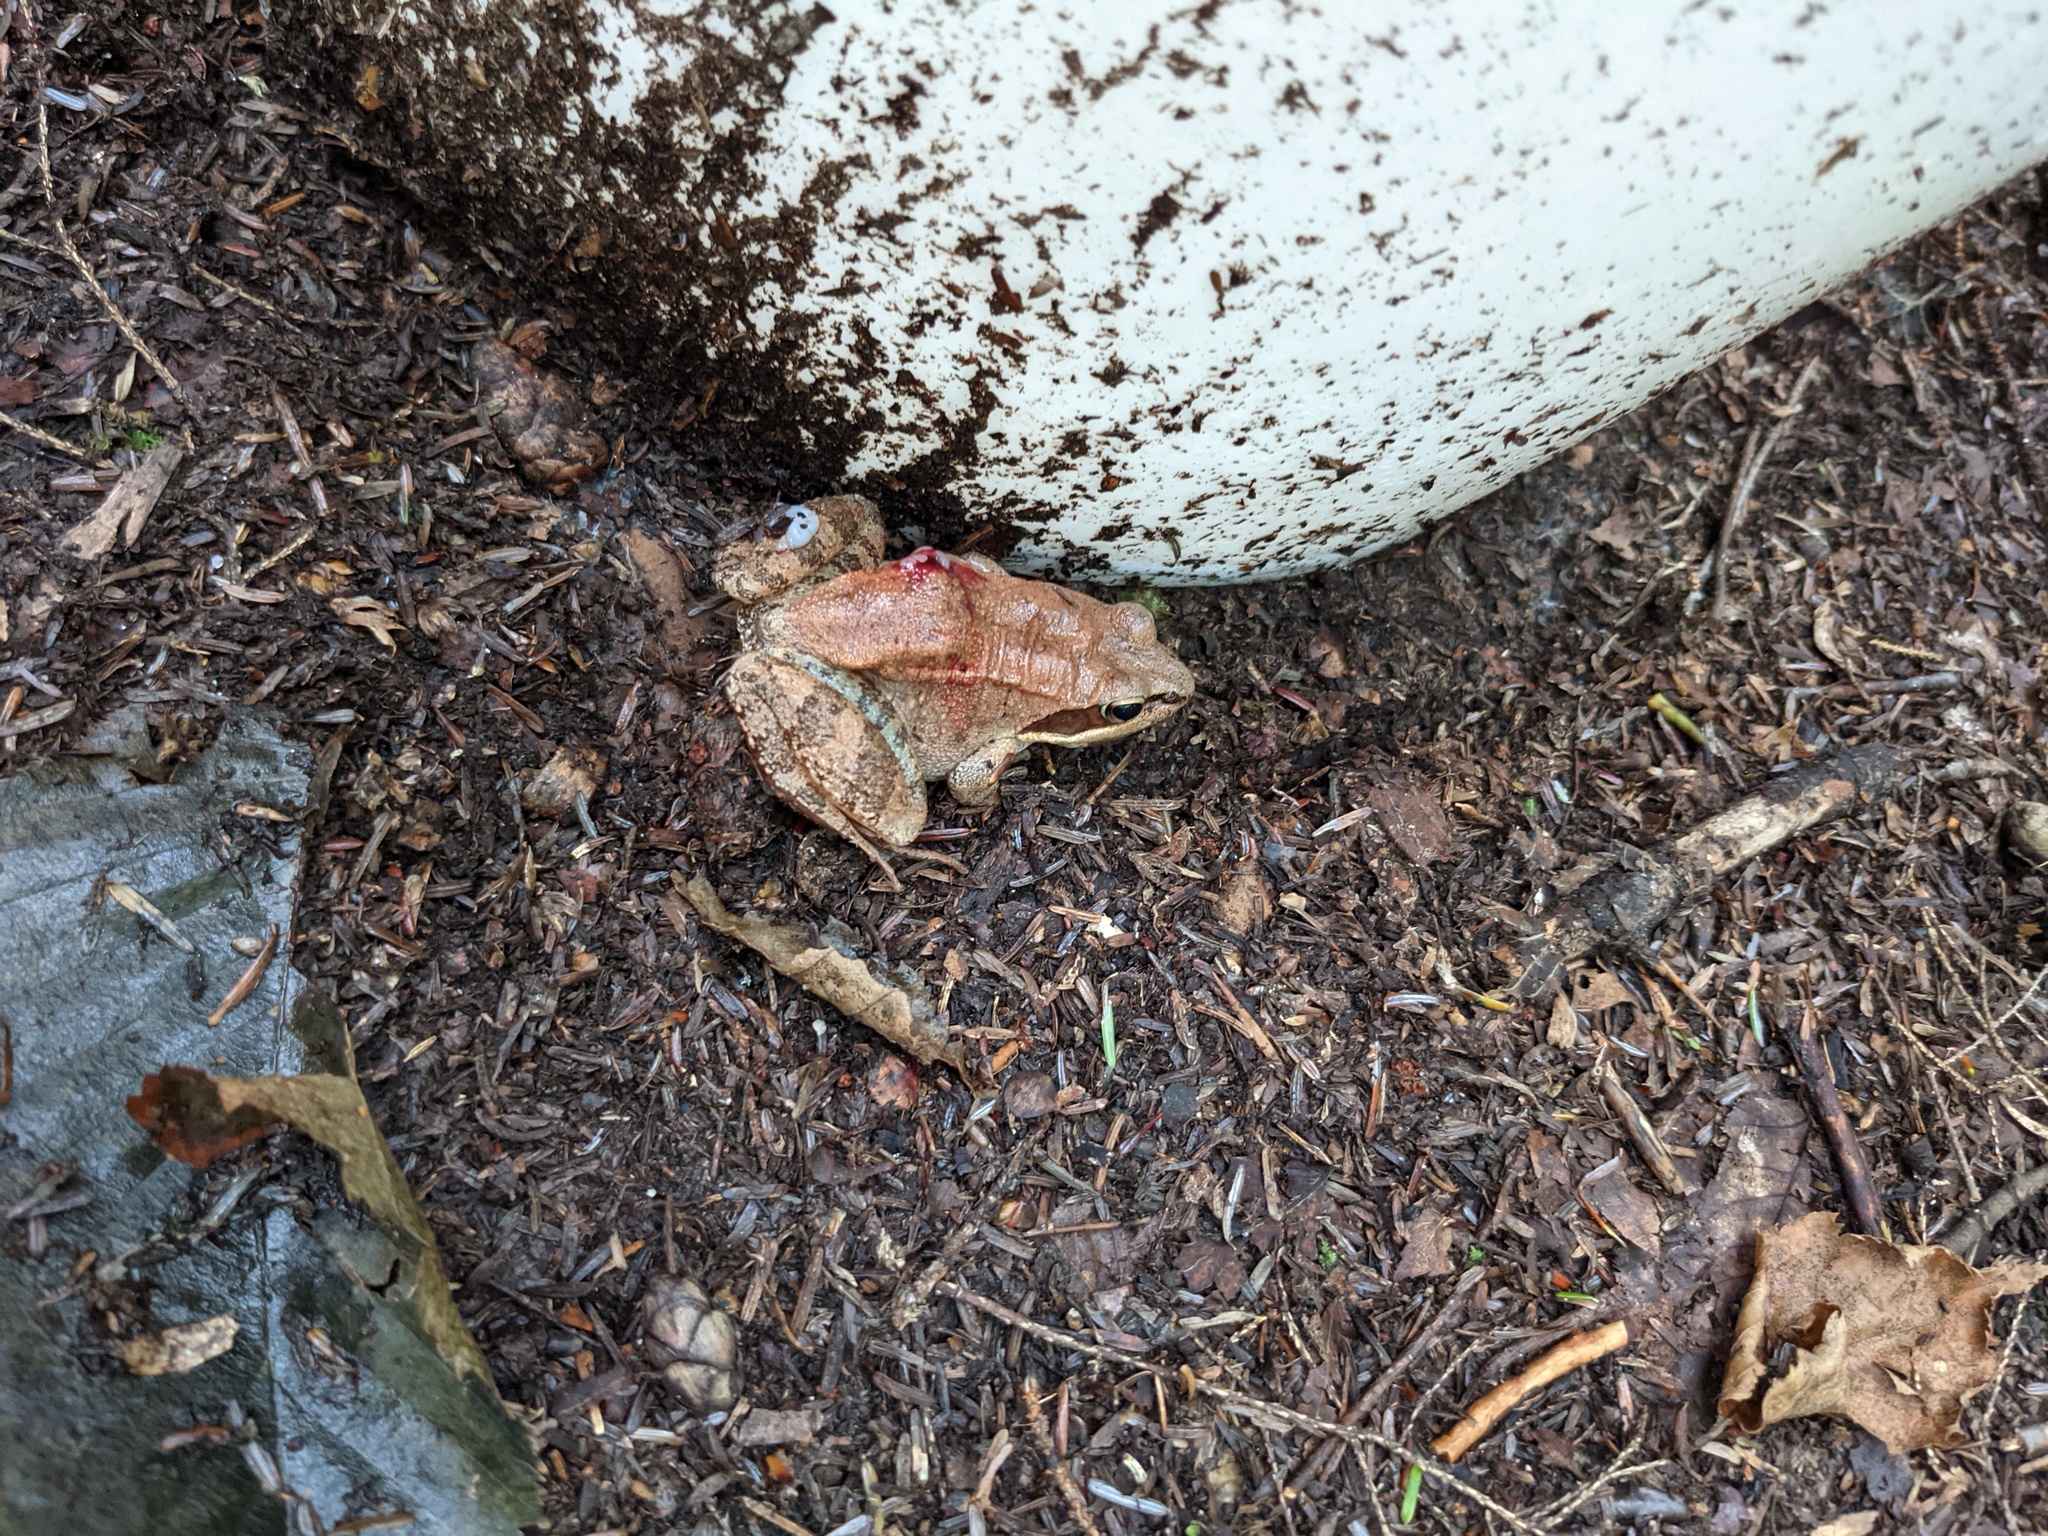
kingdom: Animalia
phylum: Chordata
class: Amphibia
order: Anura
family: Ranidae
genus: Lithobates
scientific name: Lithobates sylvaticus
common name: Wood frog
